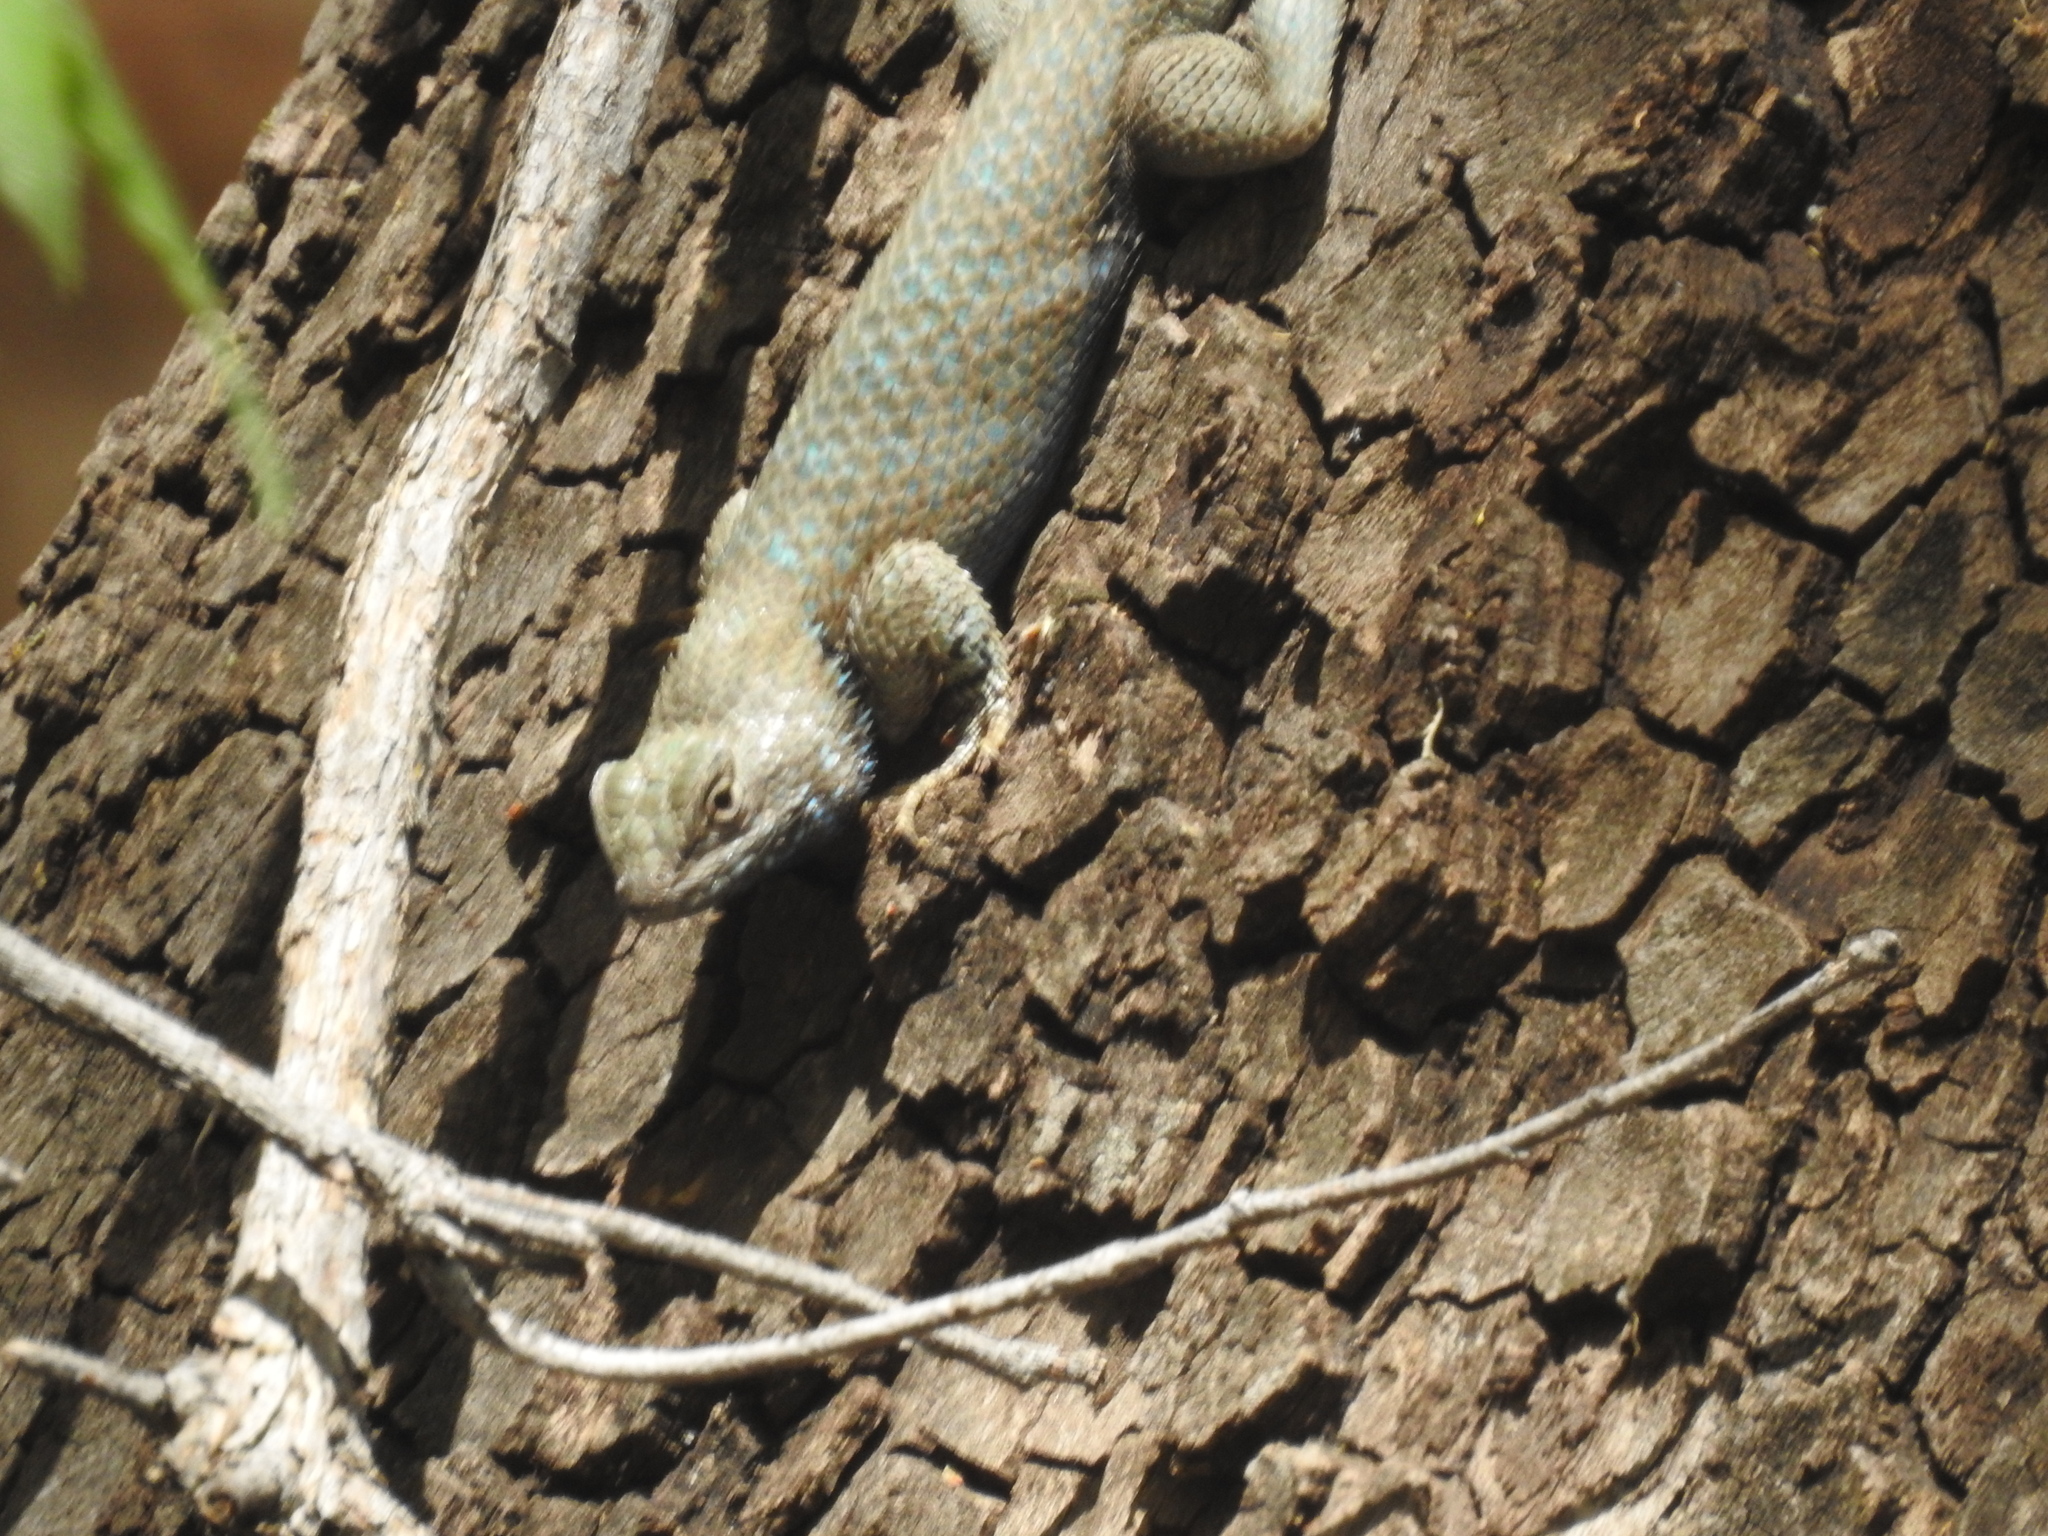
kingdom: Animalia
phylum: Chordata
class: Squamata
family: Phrynosomatidae
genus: Sceloporus
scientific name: Sceloporus clarkii
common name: Clark's spiny lizard
